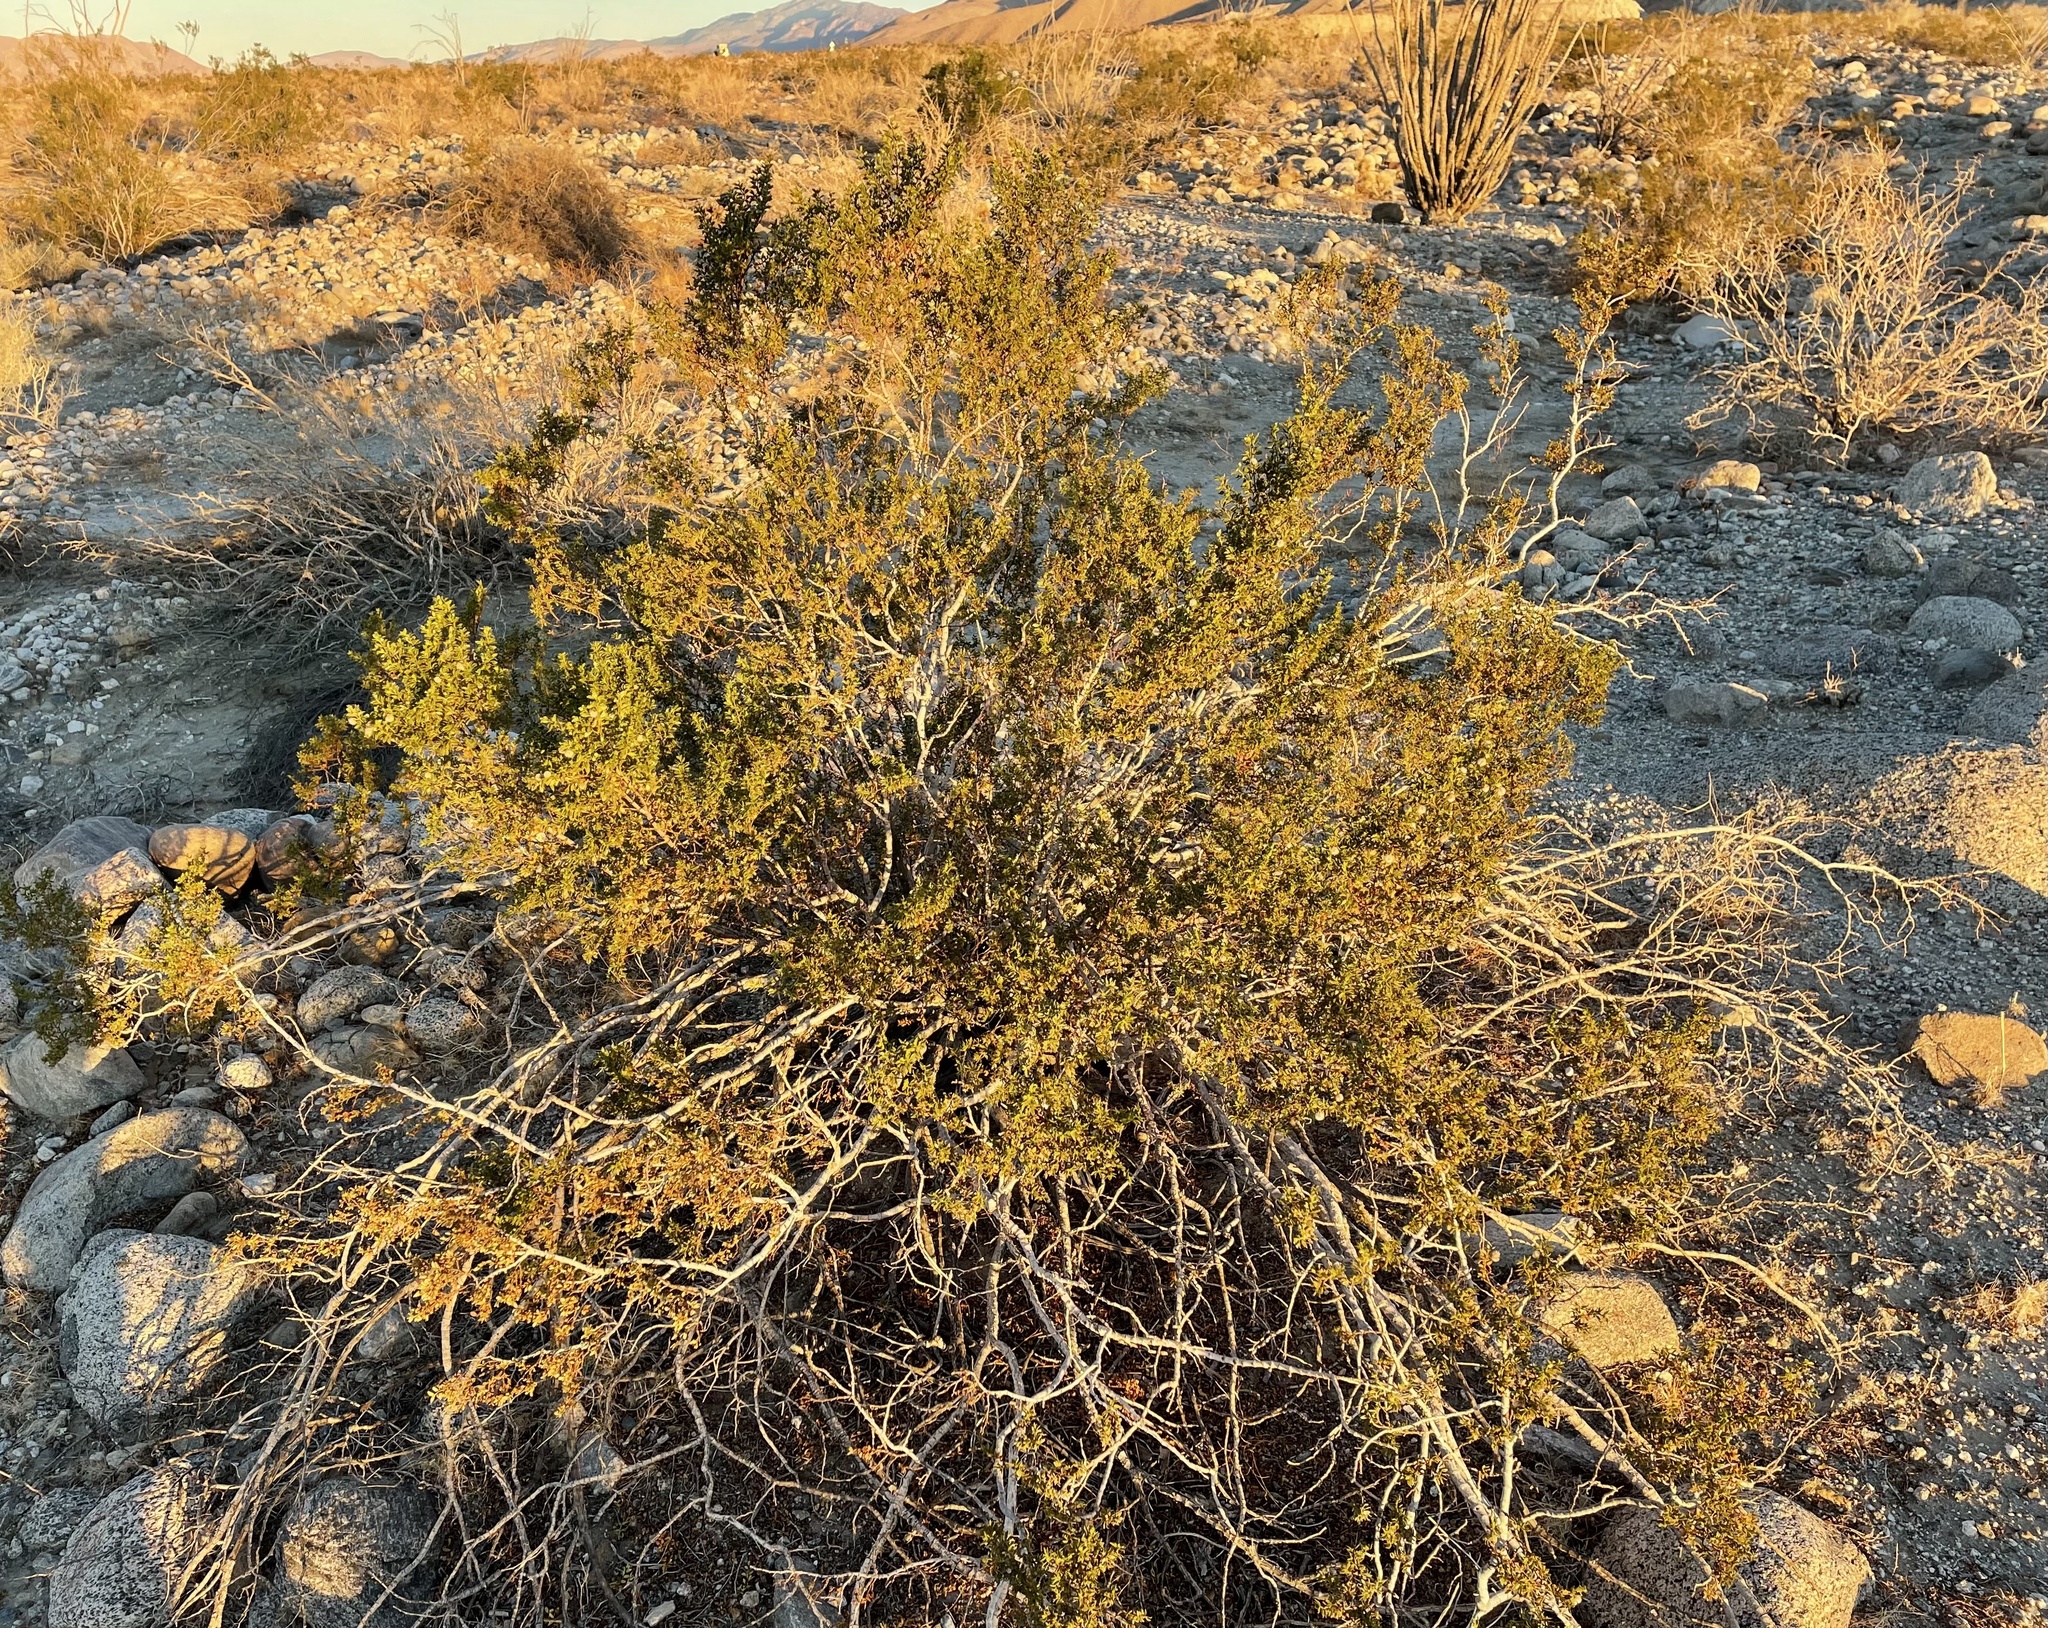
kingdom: Animalia
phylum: Arthropoda
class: Insecta
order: Diptera
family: Cecidomyiidae
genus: Asphondylia
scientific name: Asphondylia rosetta
